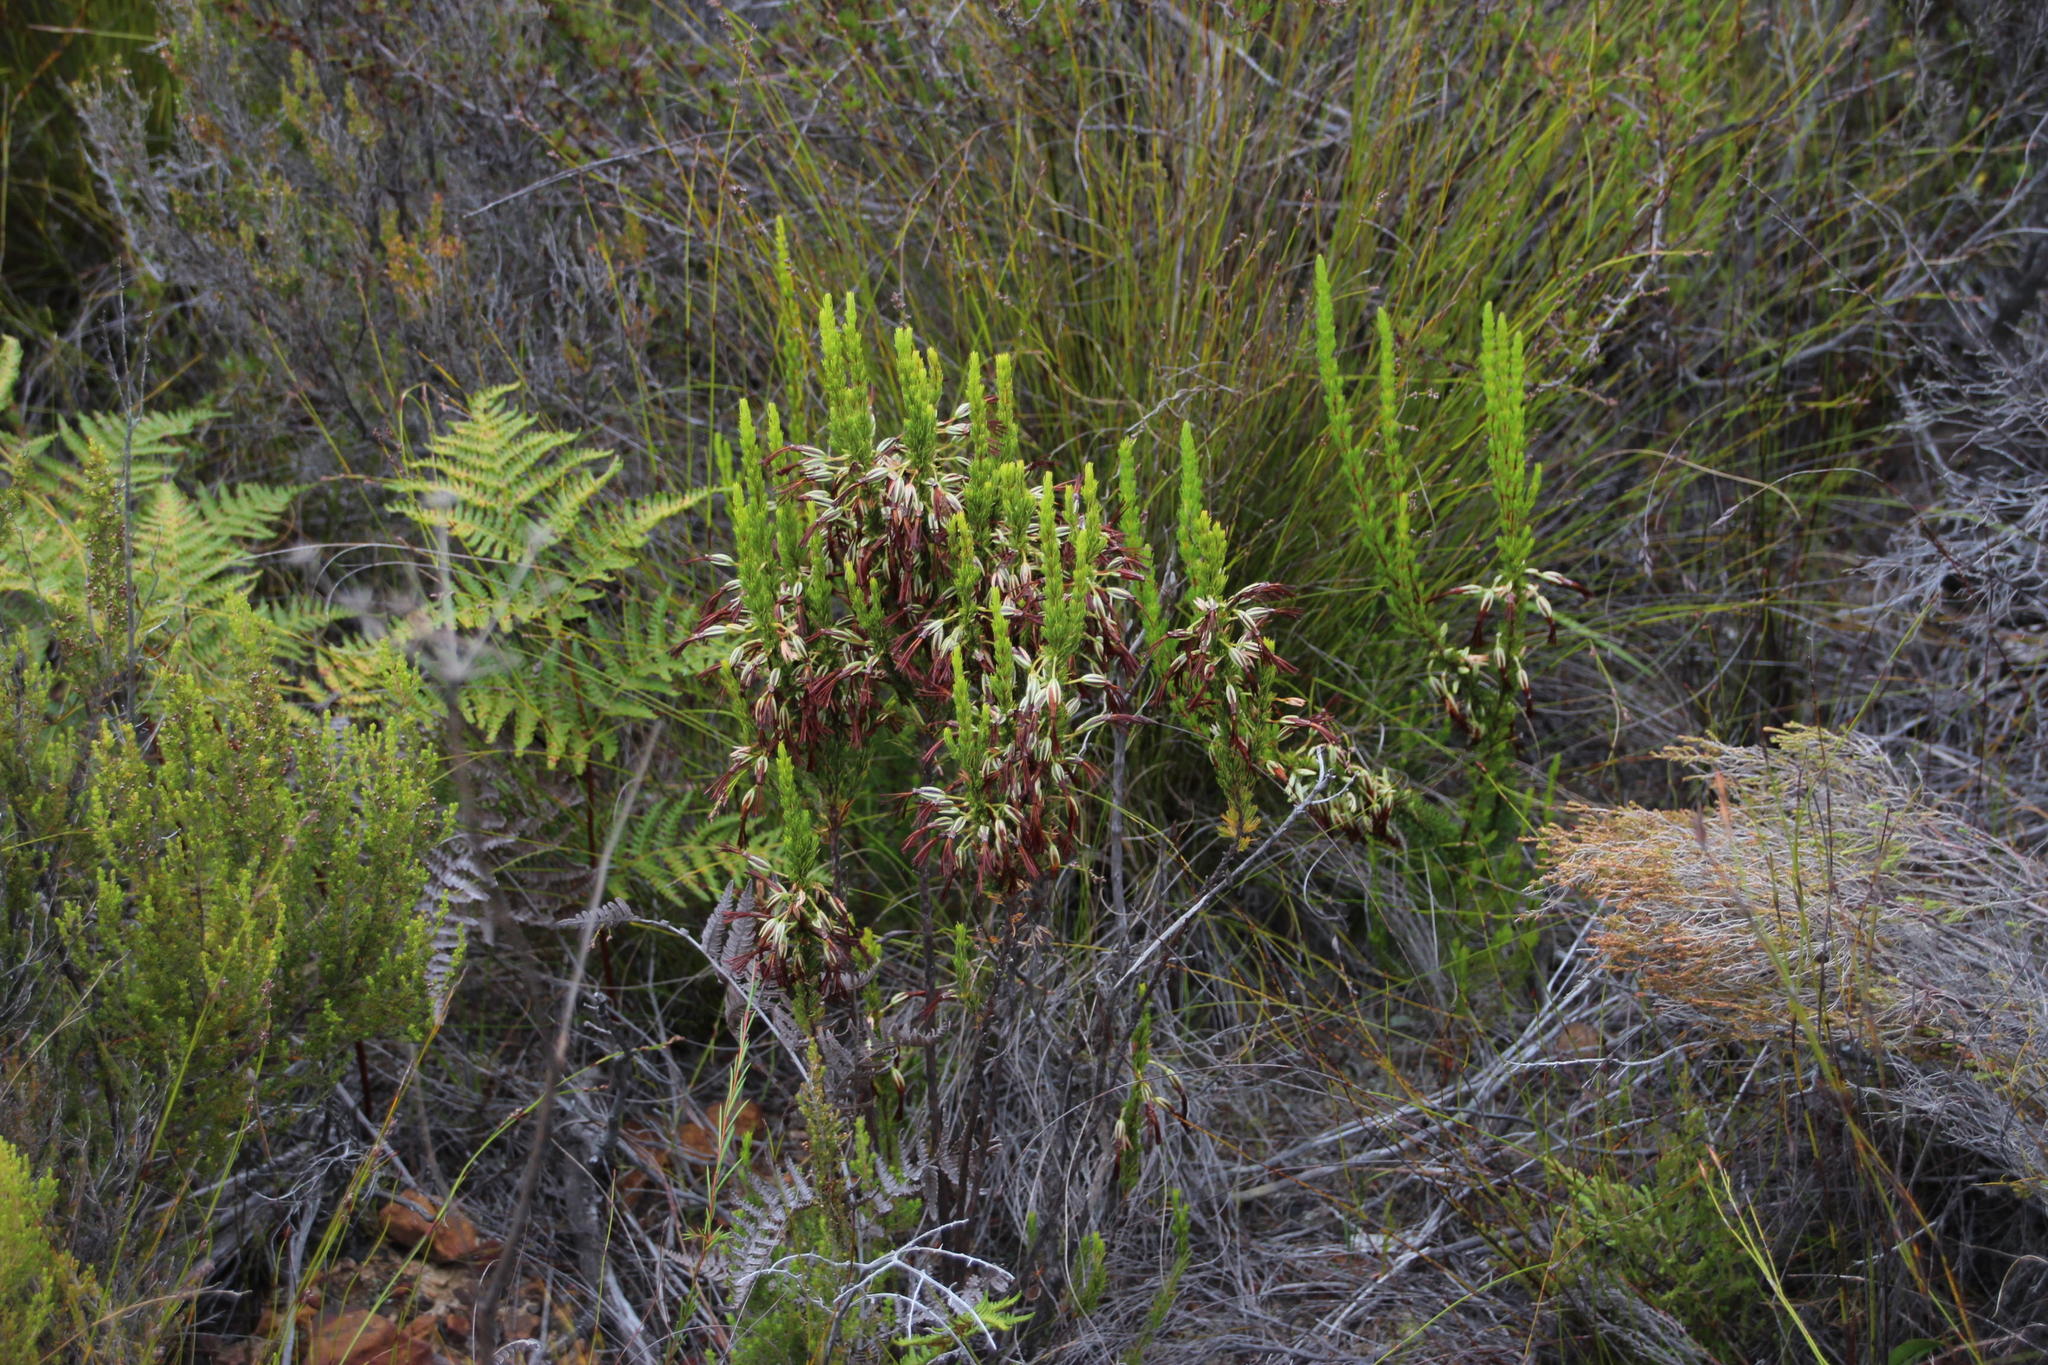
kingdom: Plantae
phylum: Tracheophyta
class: Magnoliopsida
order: Ericales
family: Ericaceae
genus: Erica
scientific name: Erica plukenetii
